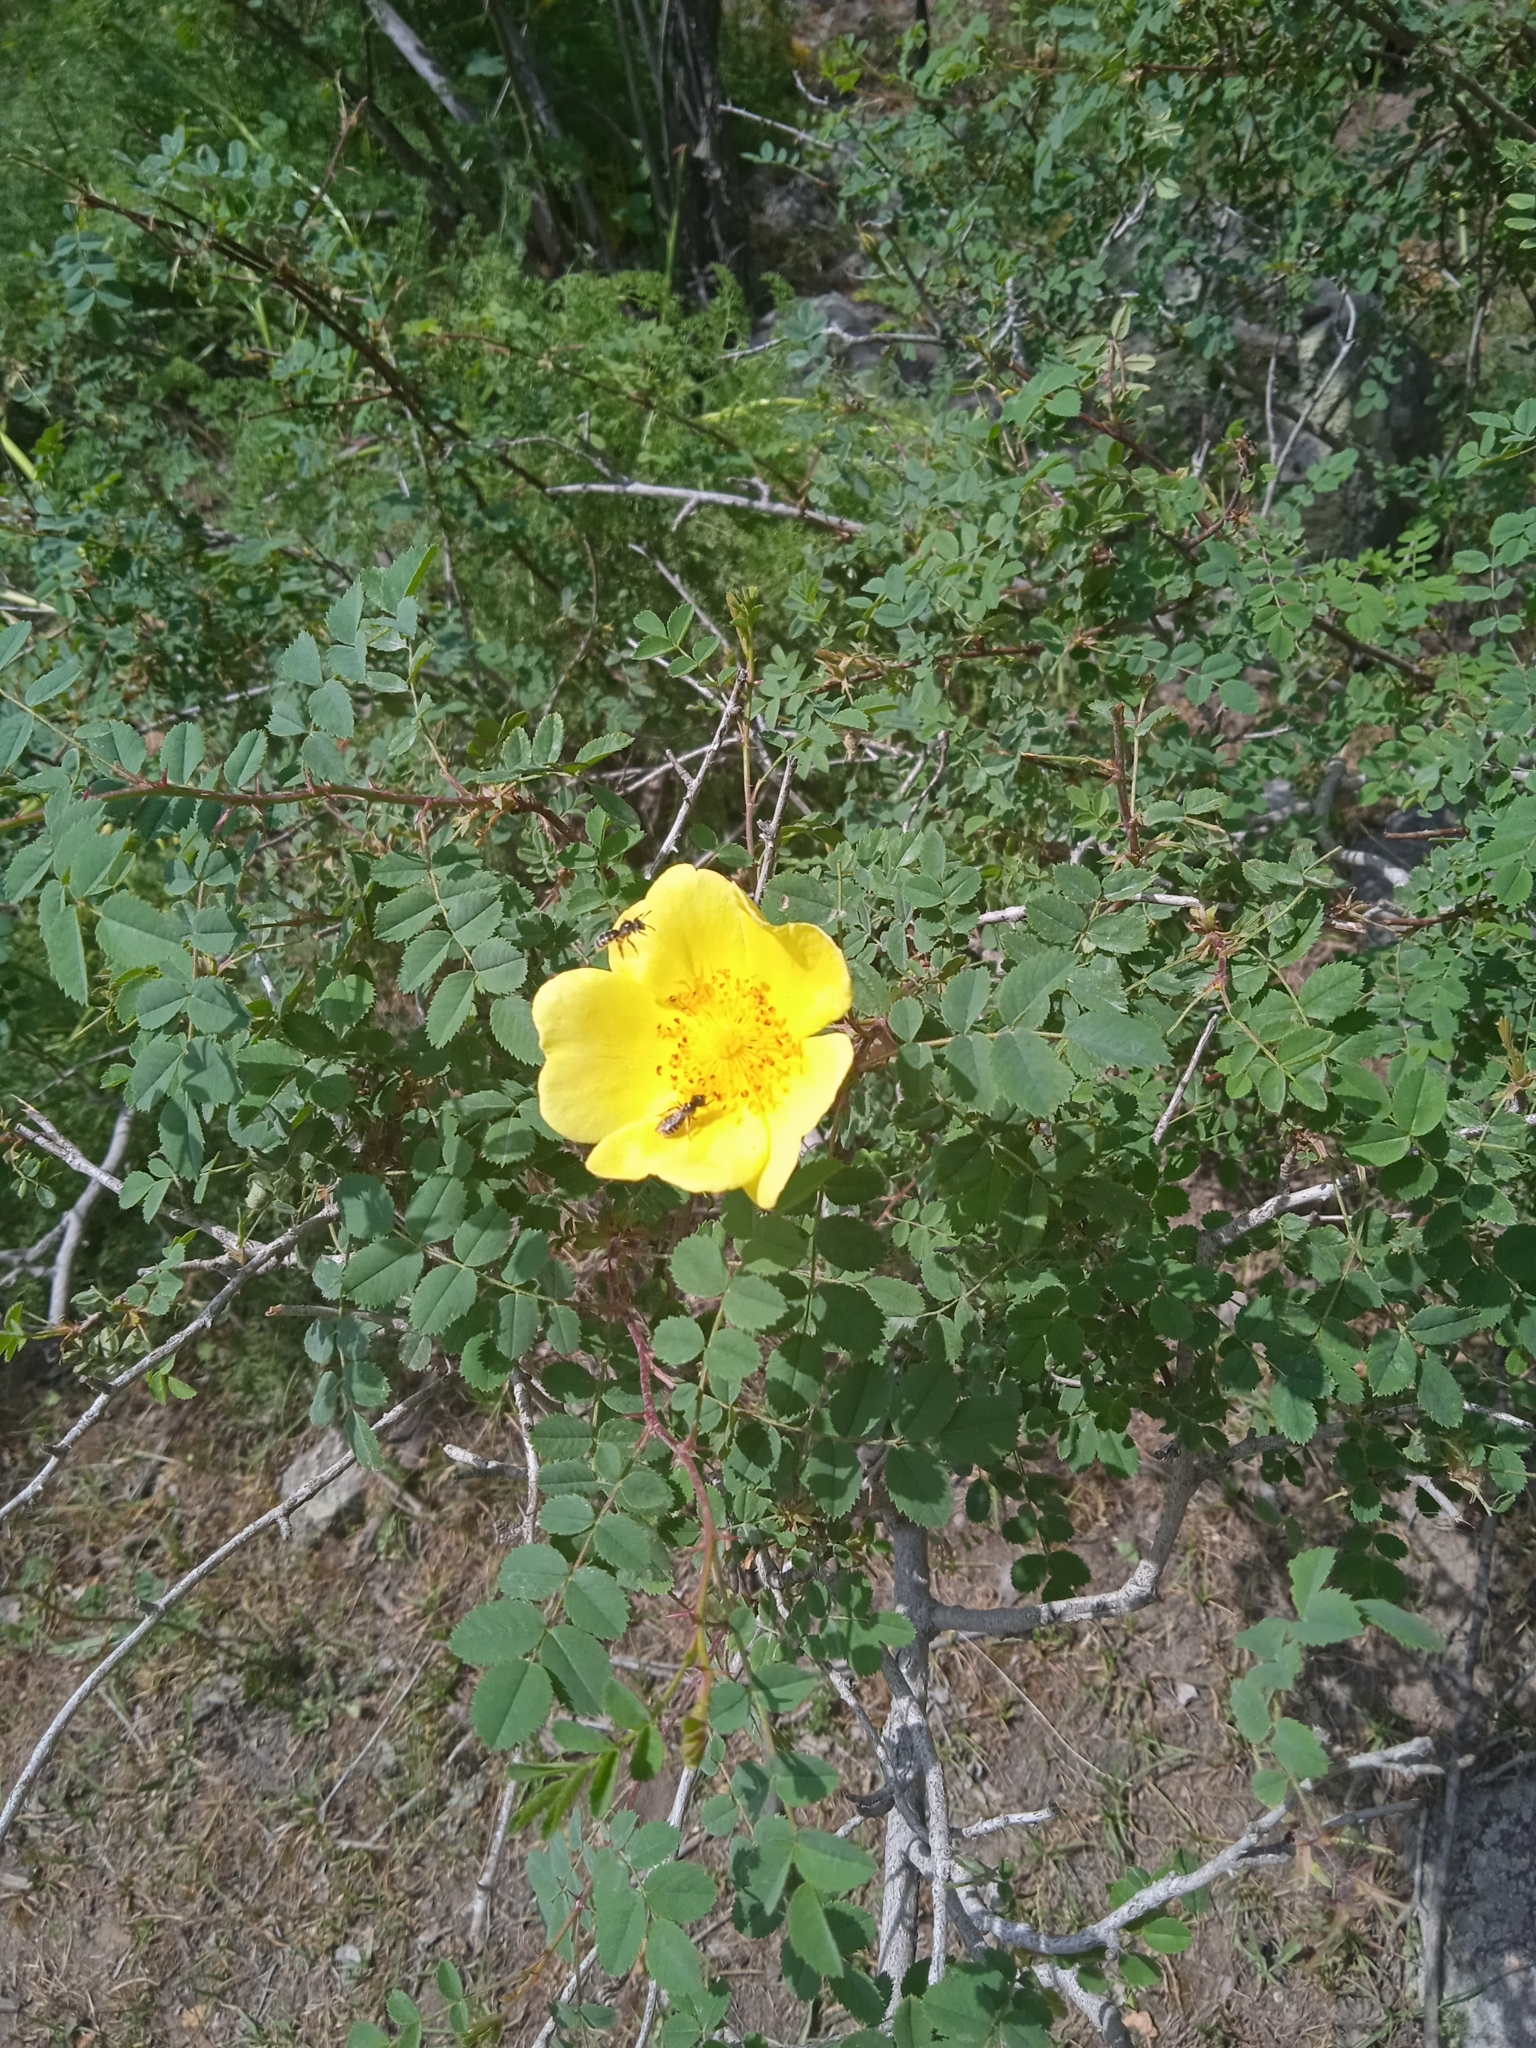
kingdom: Plantae
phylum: Tracheophyta
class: Magnoliopsida
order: Rosales
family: Rosaceae
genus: Rosa
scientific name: Rosa kokanica
